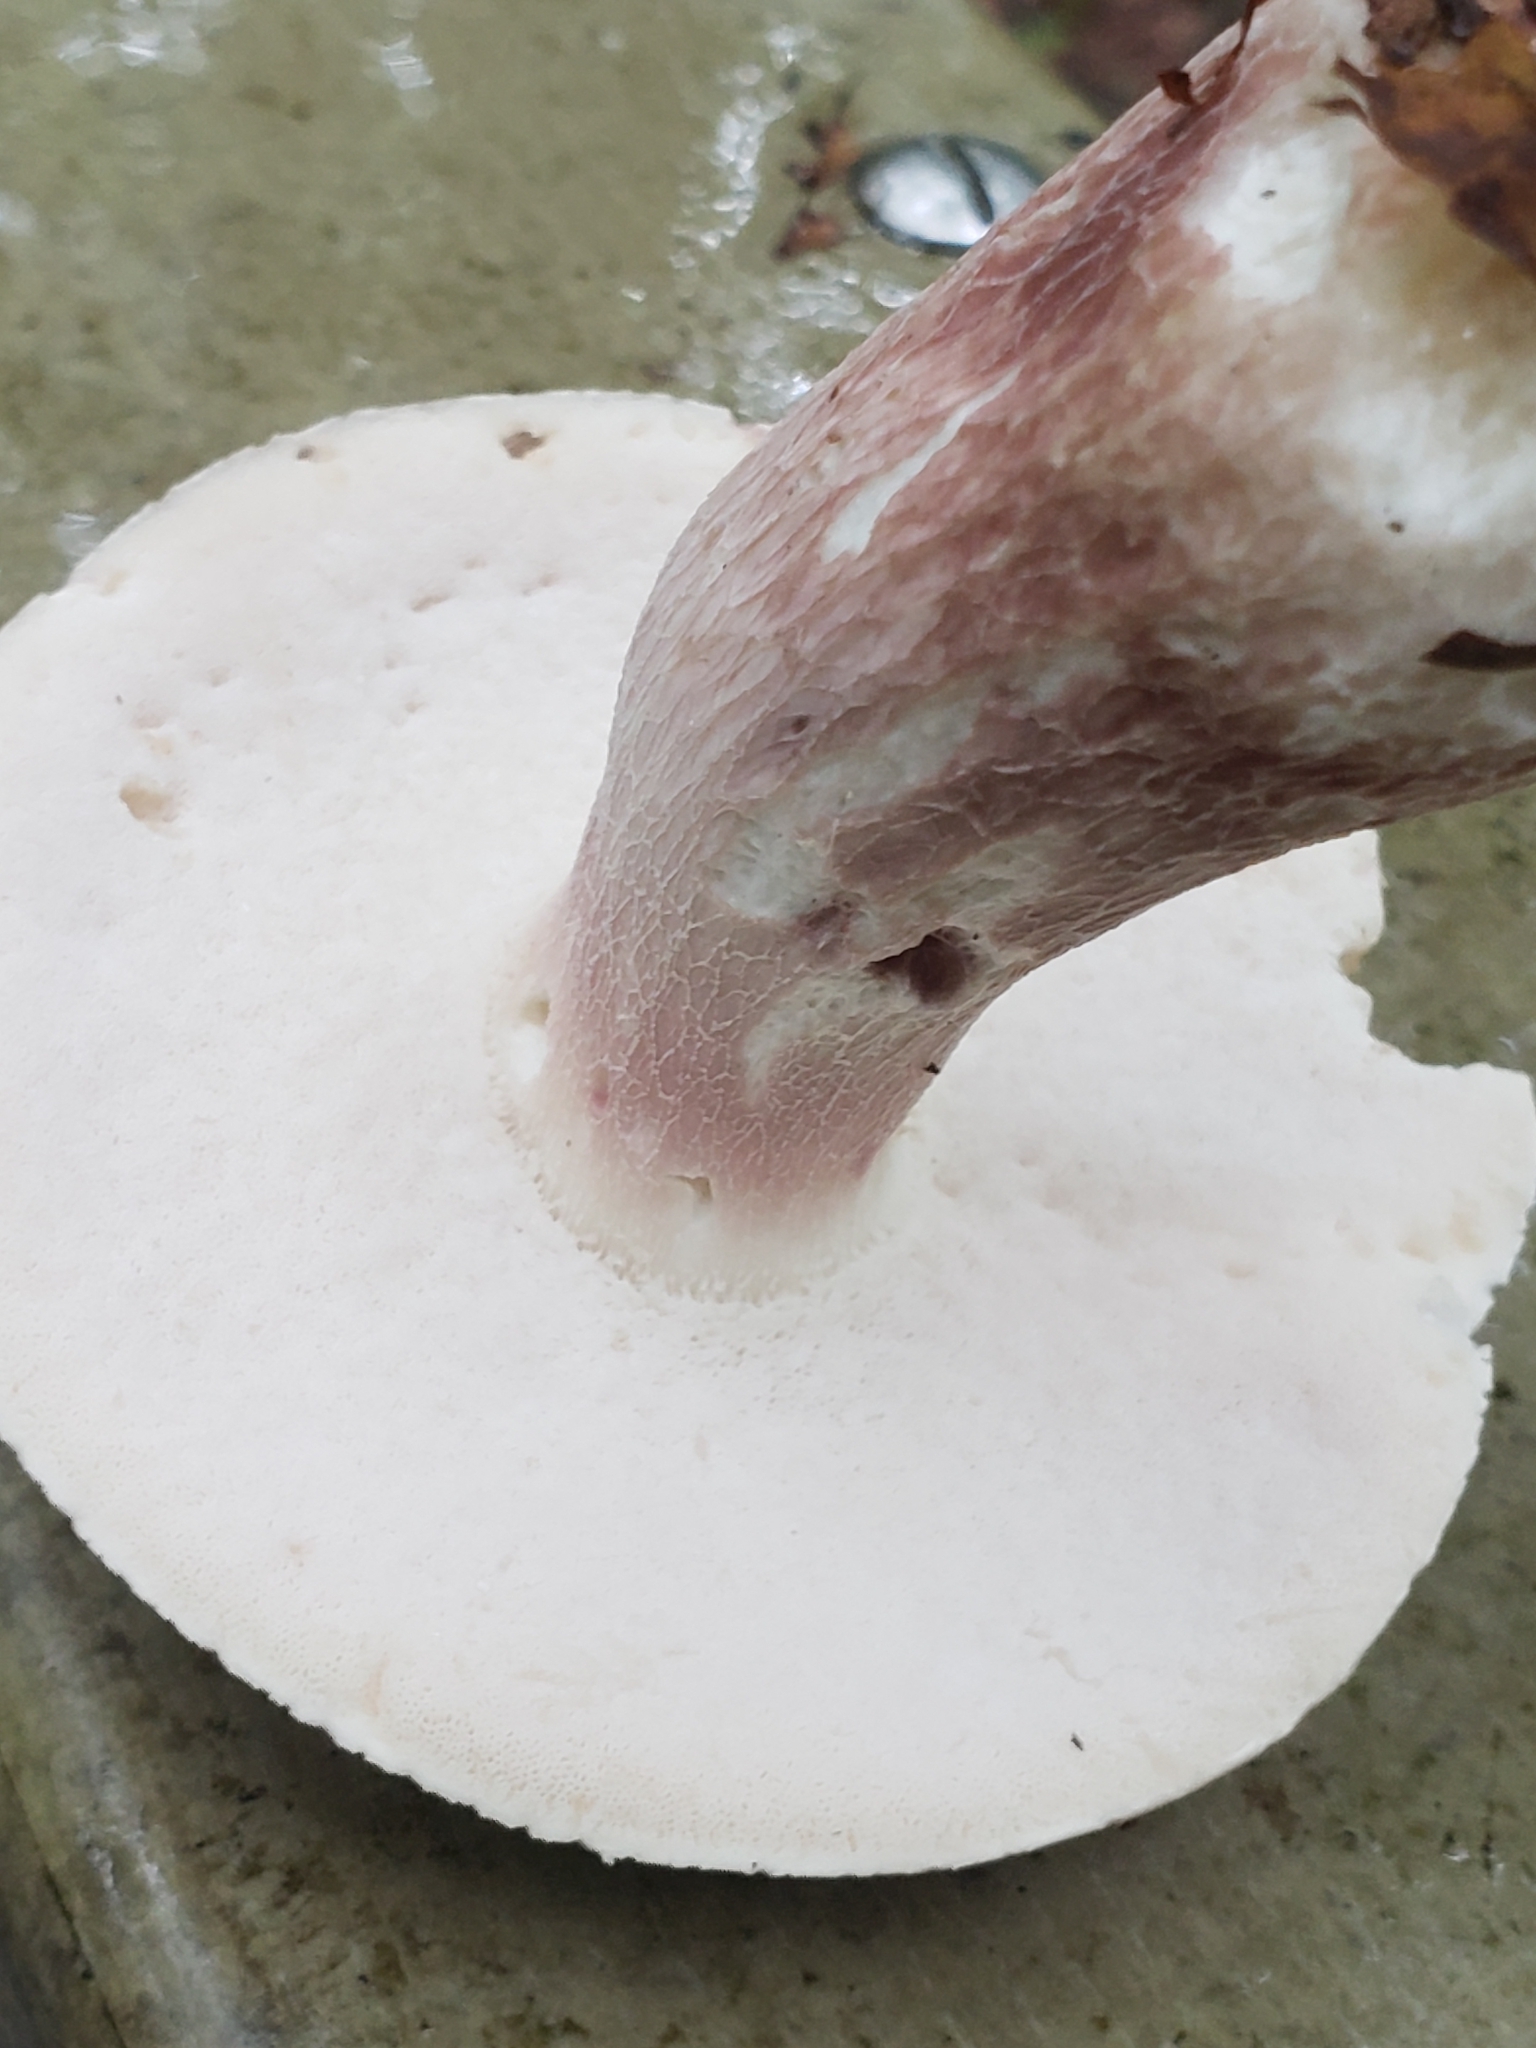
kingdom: Fungi
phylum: Basidiomycota
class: Agaricomycetes
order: Boletales
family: Boletaceae
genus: Xanthoconium
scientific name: Xanthoconium separans
